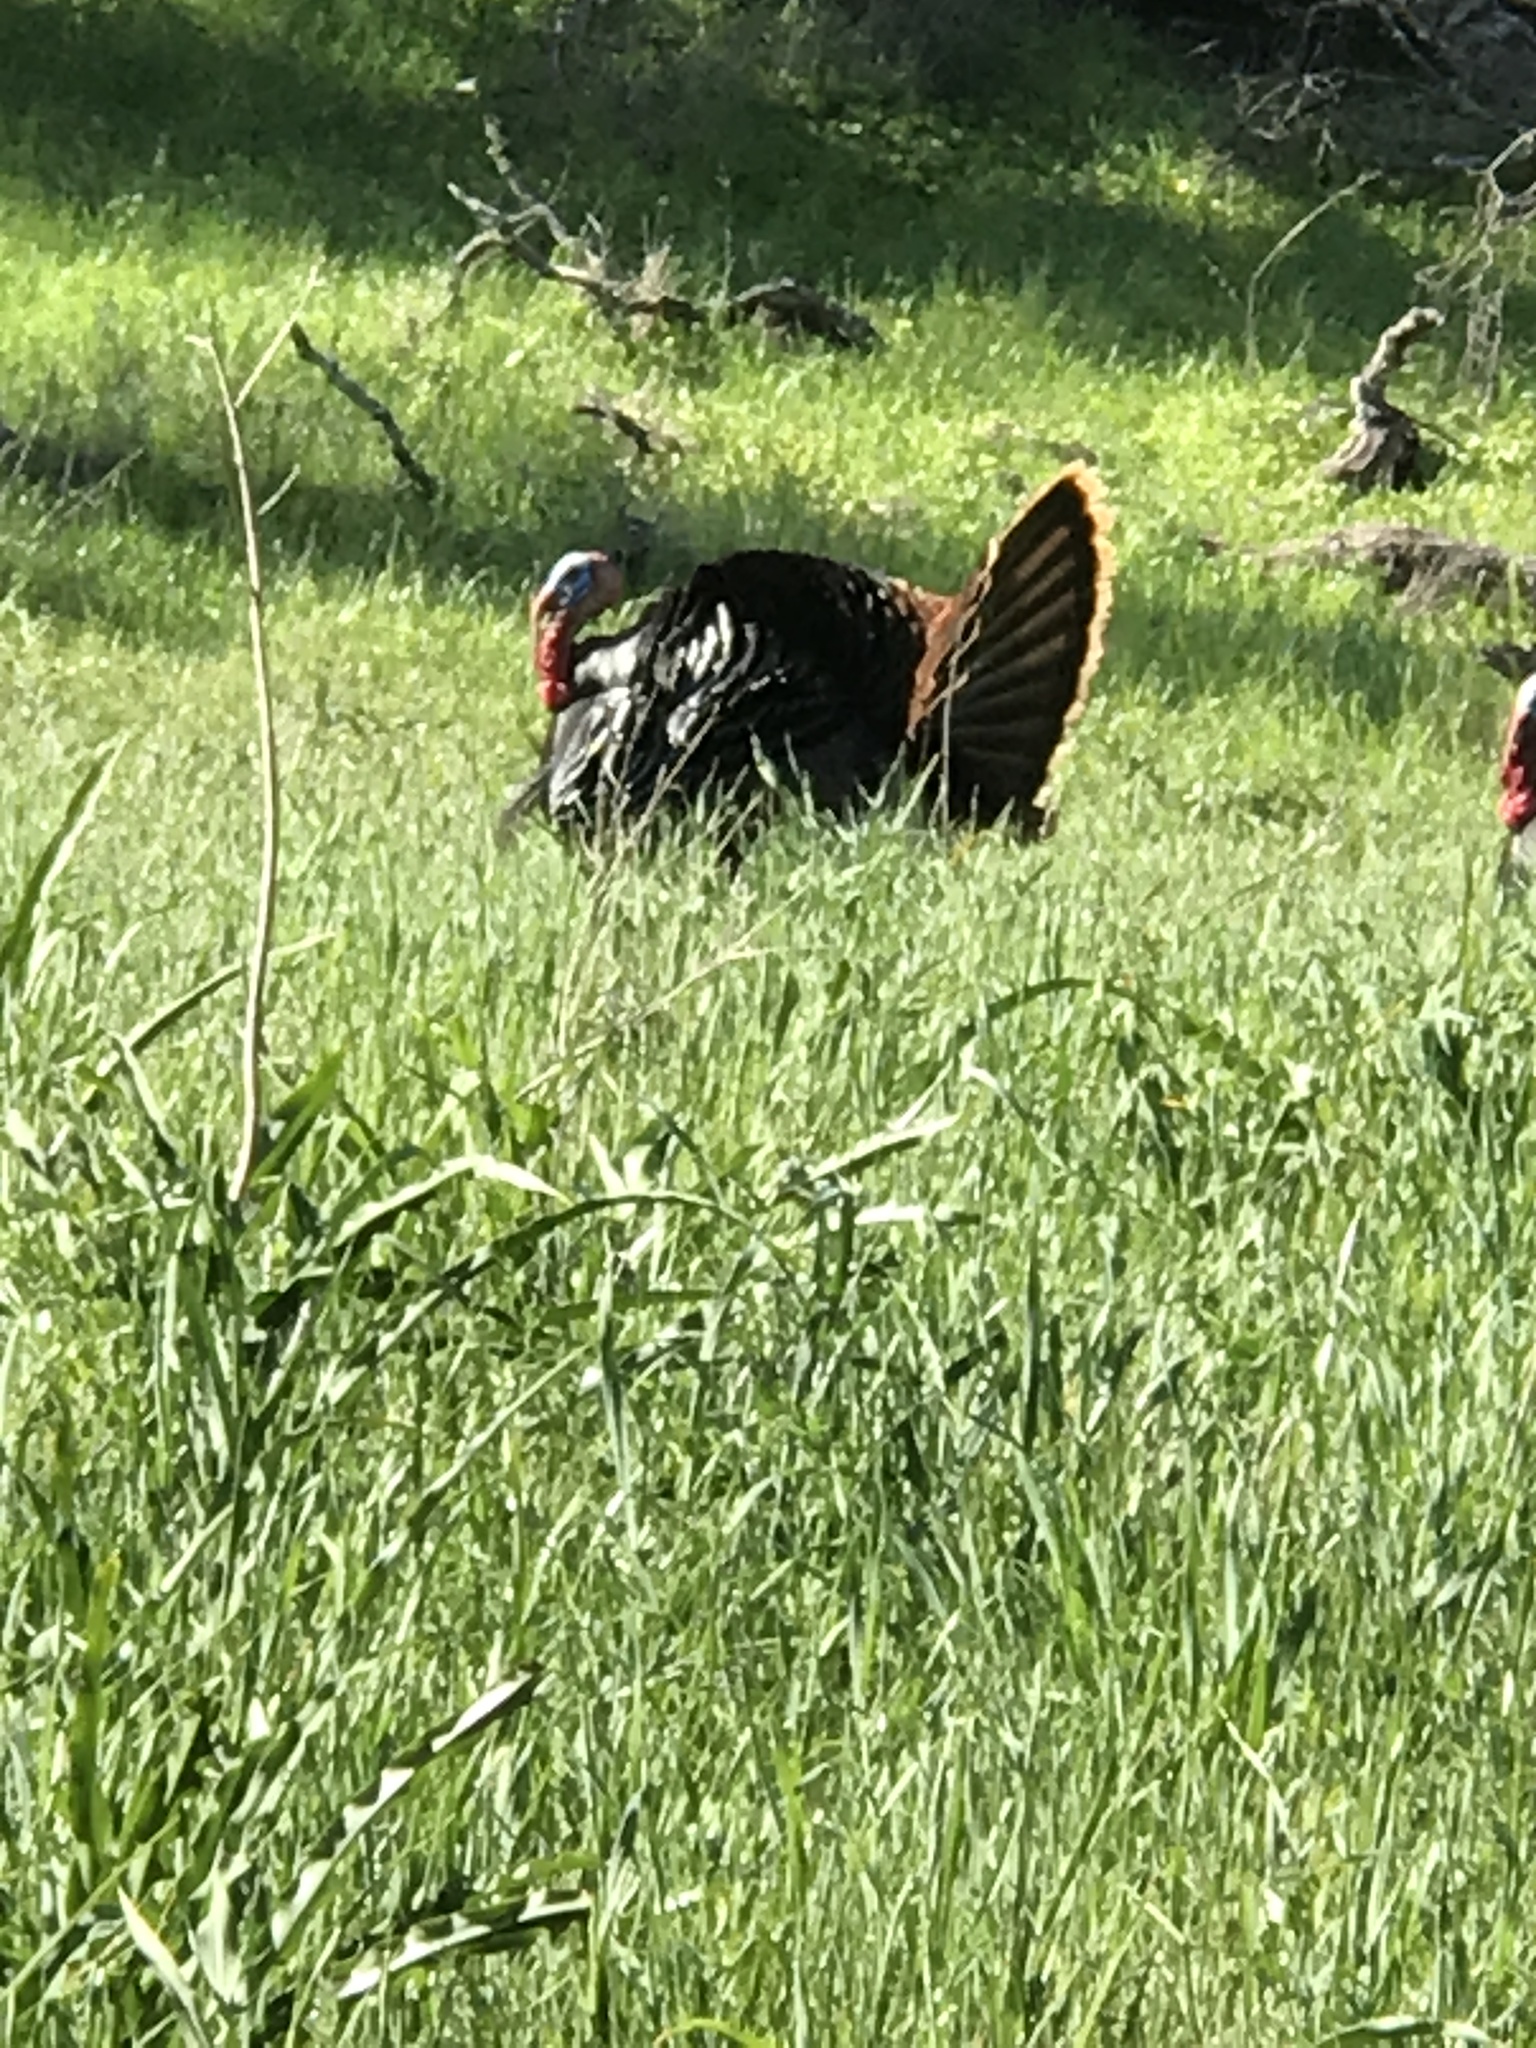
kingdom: Animalia
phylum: Chordata
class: Aves
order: Galliformes
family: Phasianidae
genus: Meleagris
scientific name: Meleagris gallopavo
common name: Wild turkey
